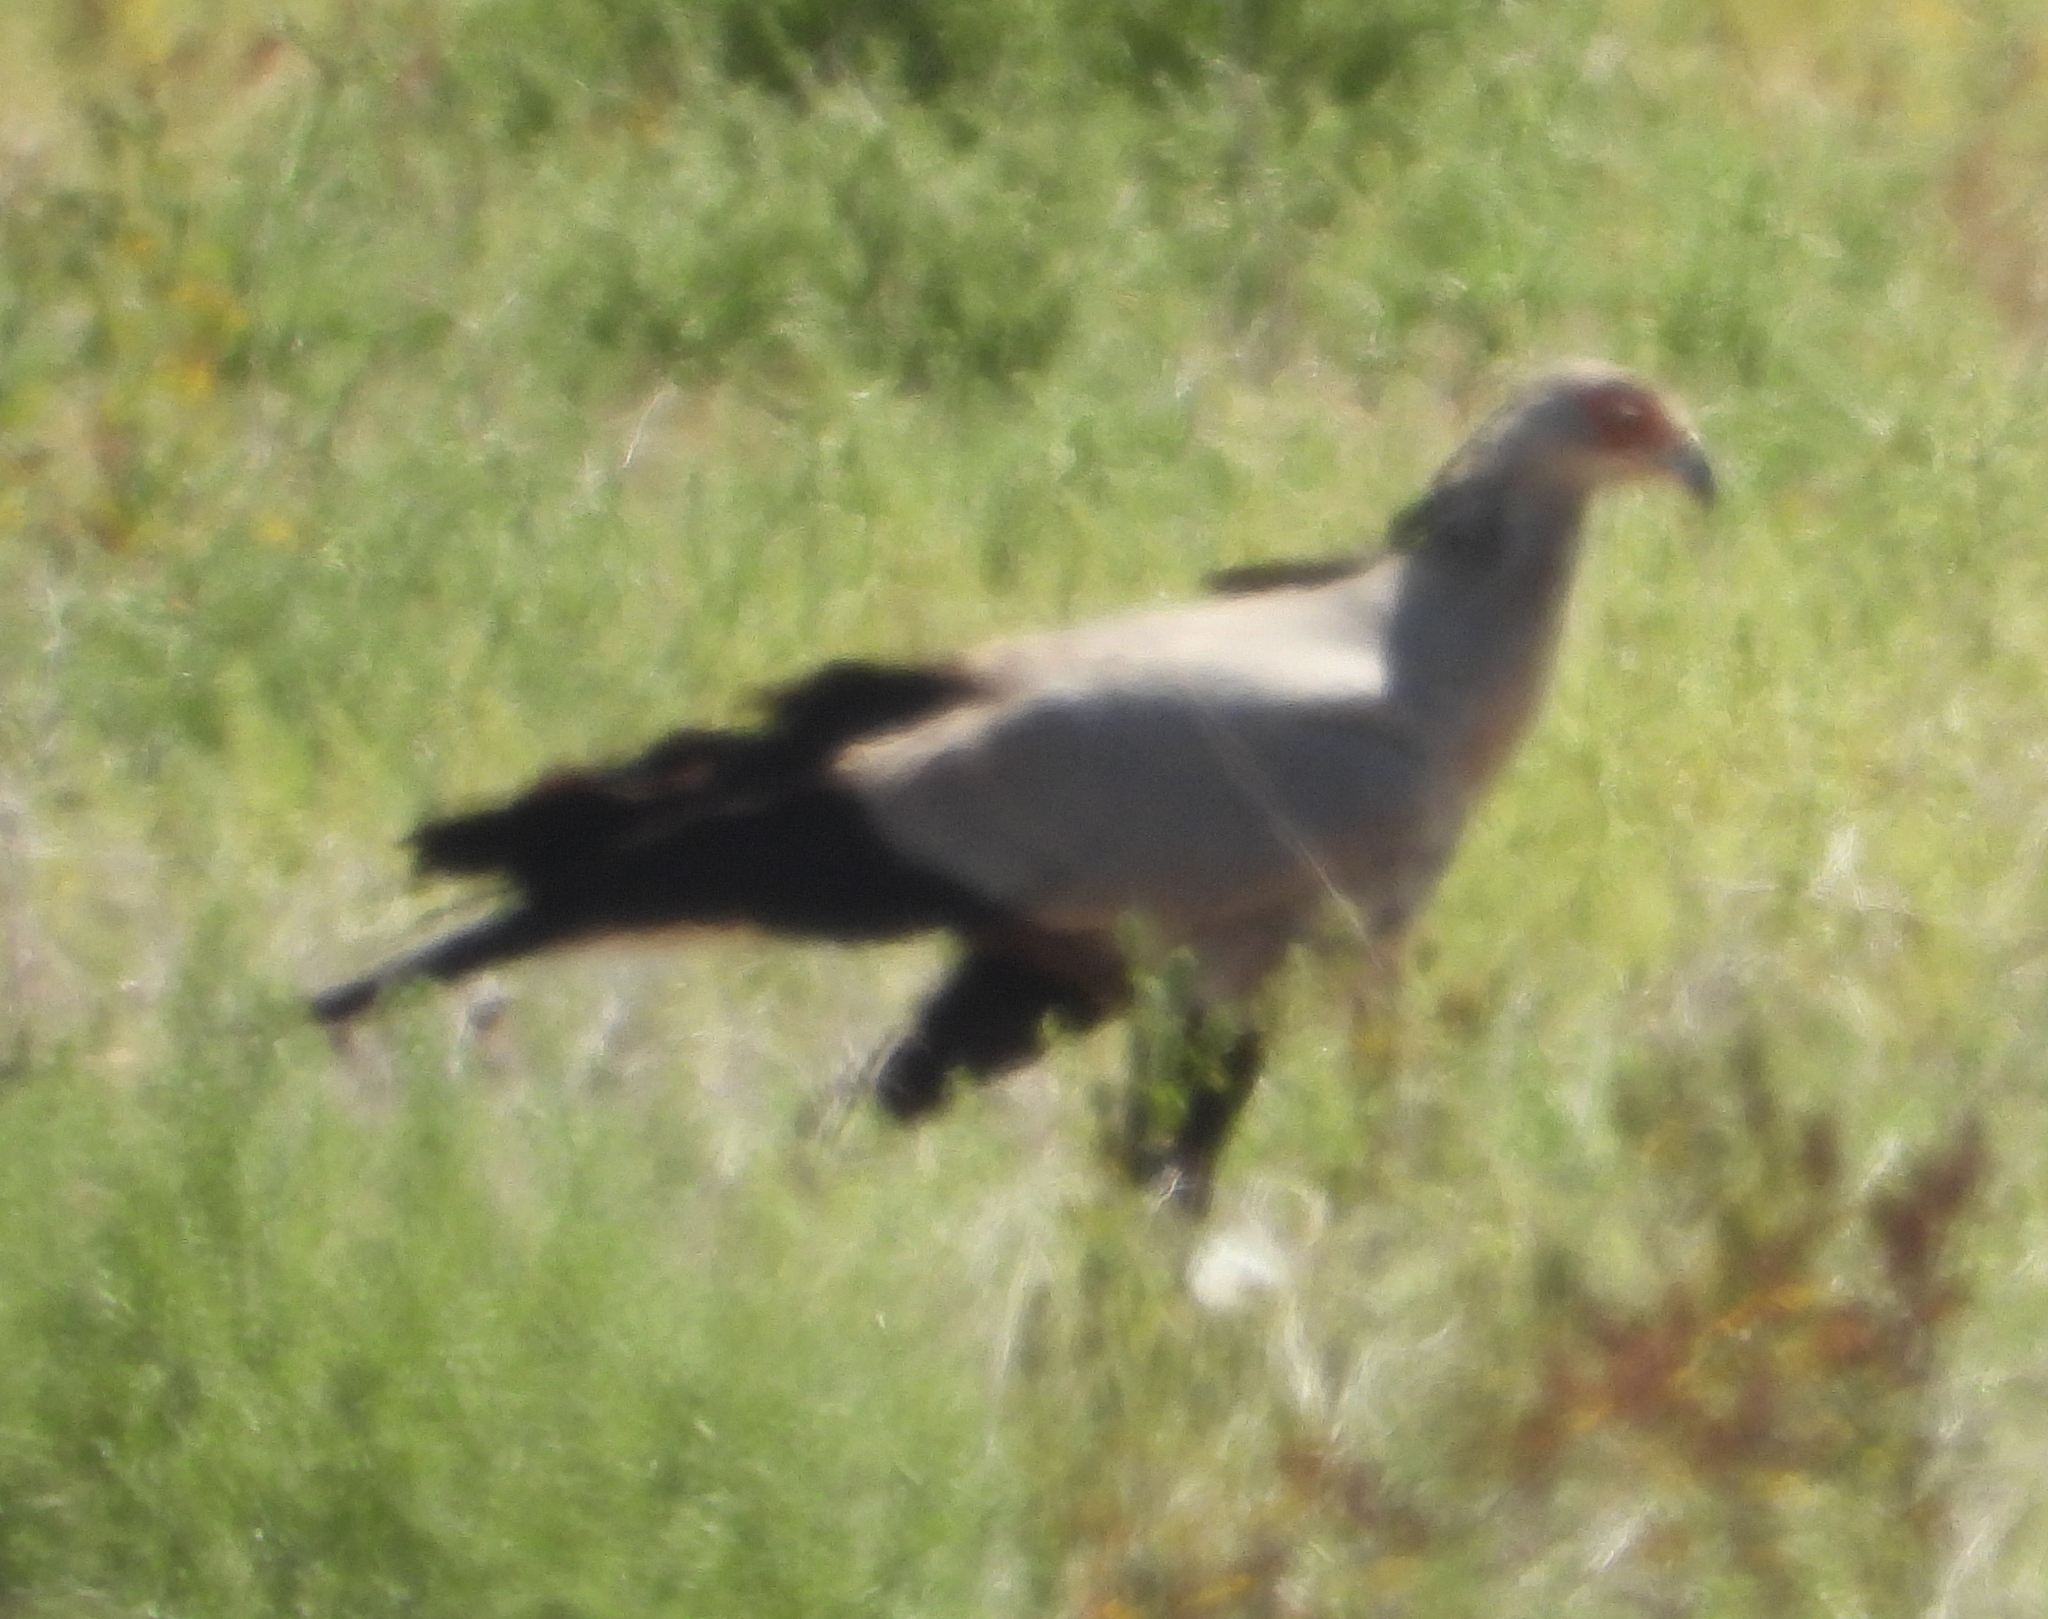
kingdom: Animalia
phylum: Chordata
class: Aves
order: Accipitriformes
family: Sagittariidae
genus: Sagittarius
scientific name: Sagittarius serpentarius
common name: Secretarybird
